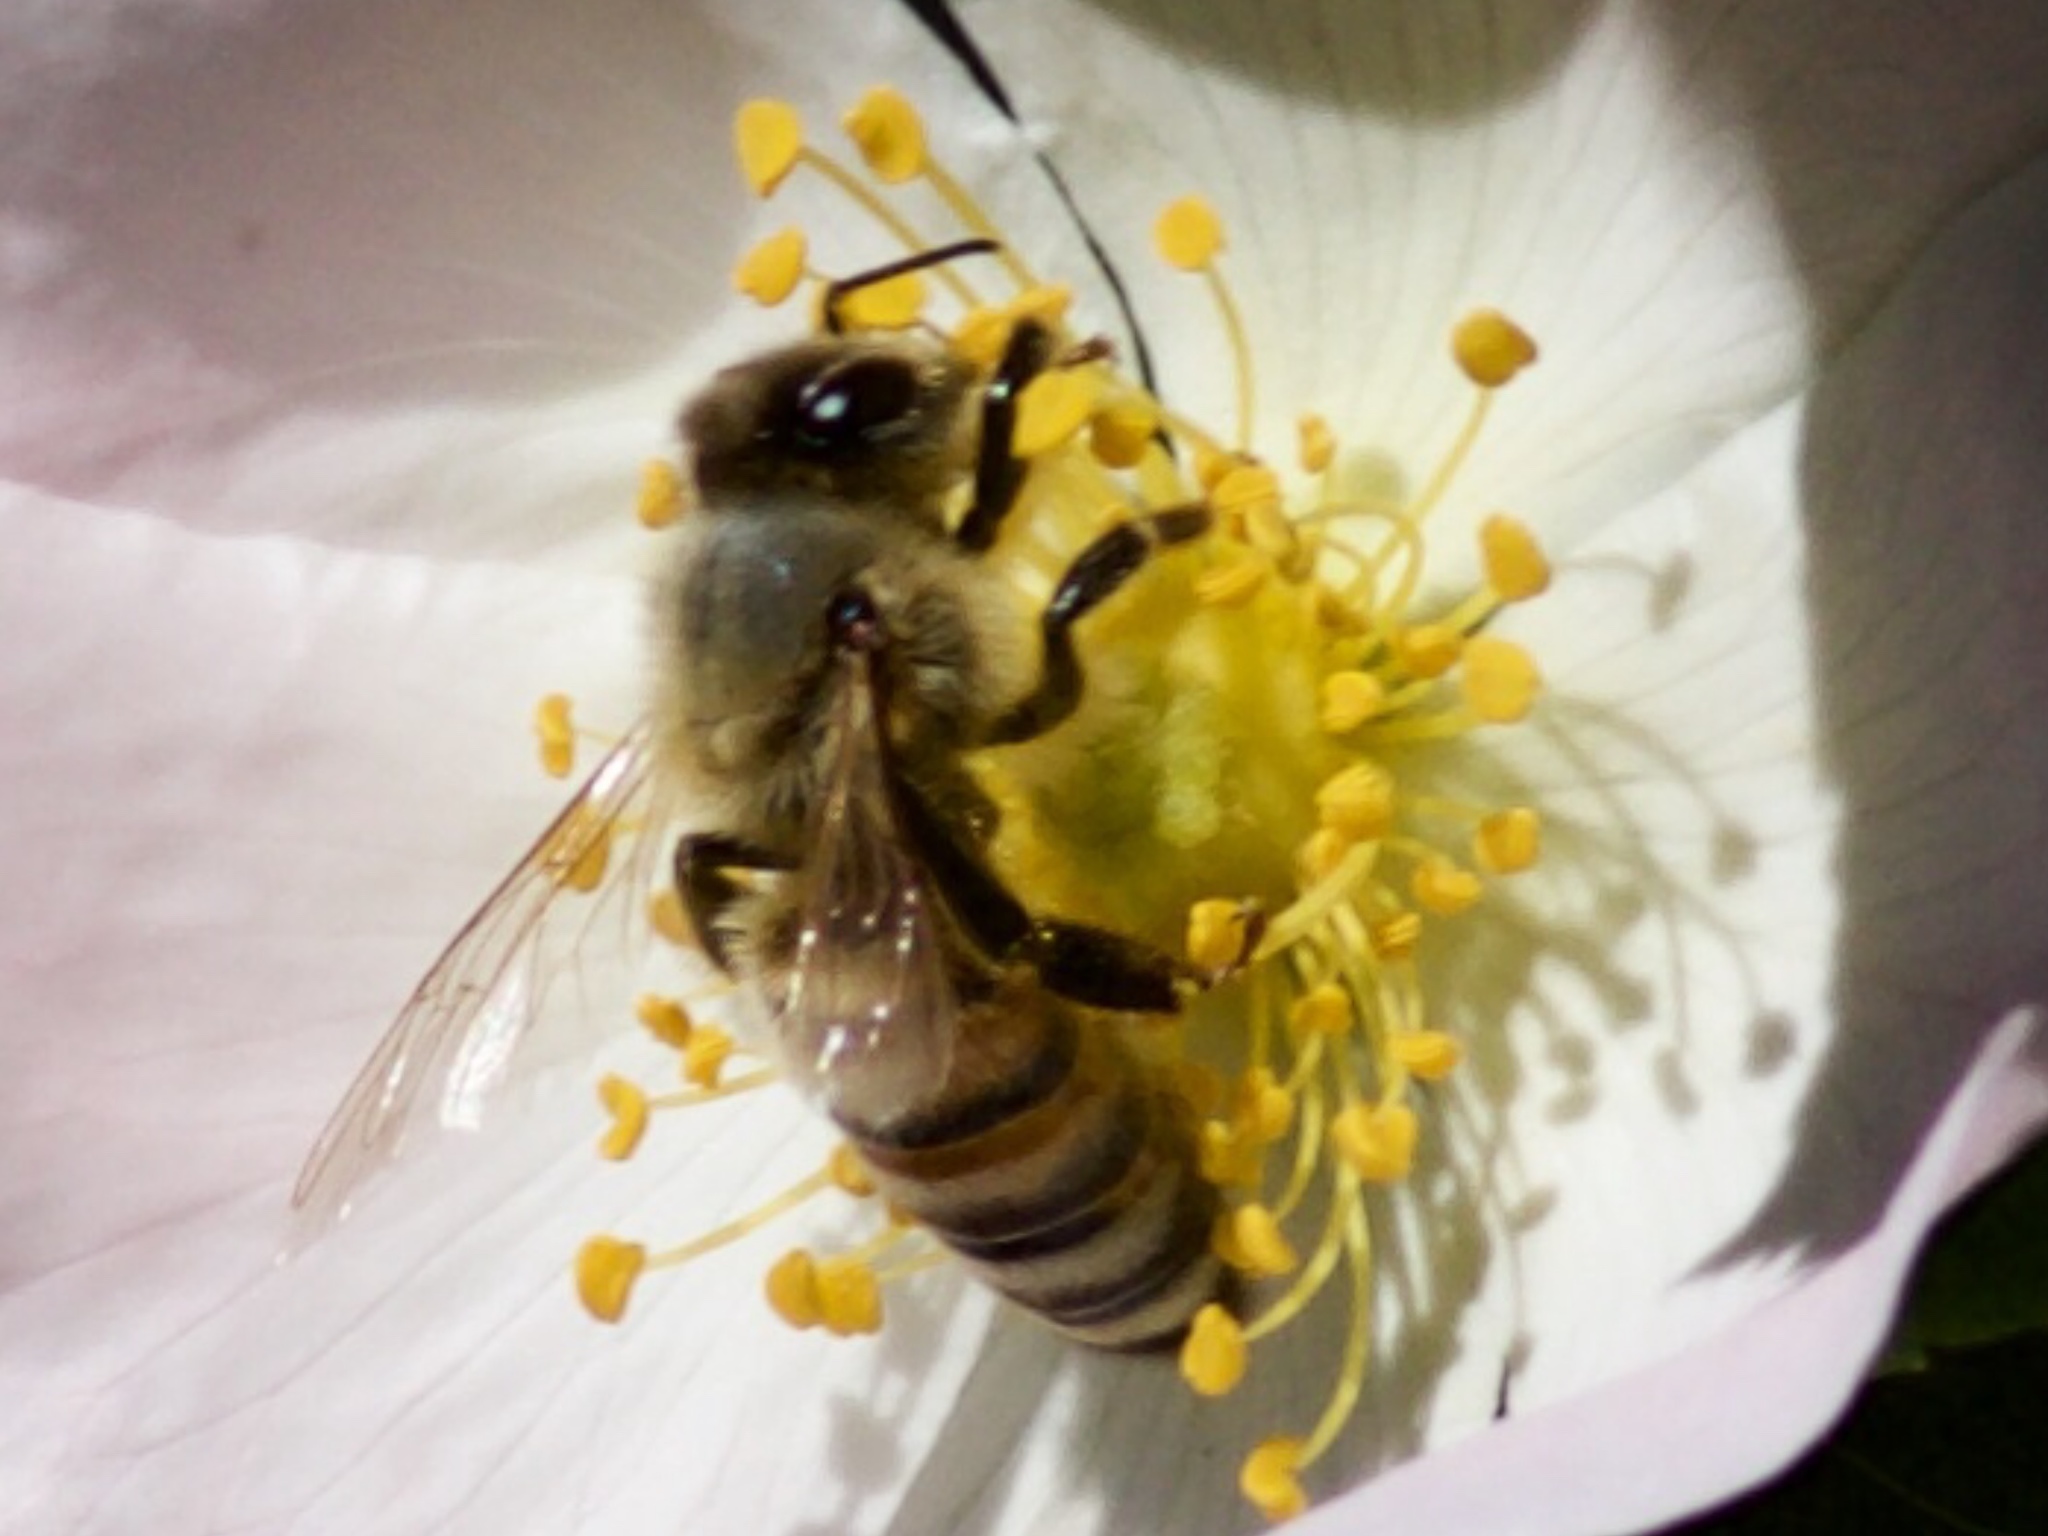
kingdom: Animalia
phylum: Arthropoda
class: Insecta
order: Hymenoptera
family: Apidae
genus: Apis
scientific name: Apis mellifera
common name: Honey bee
